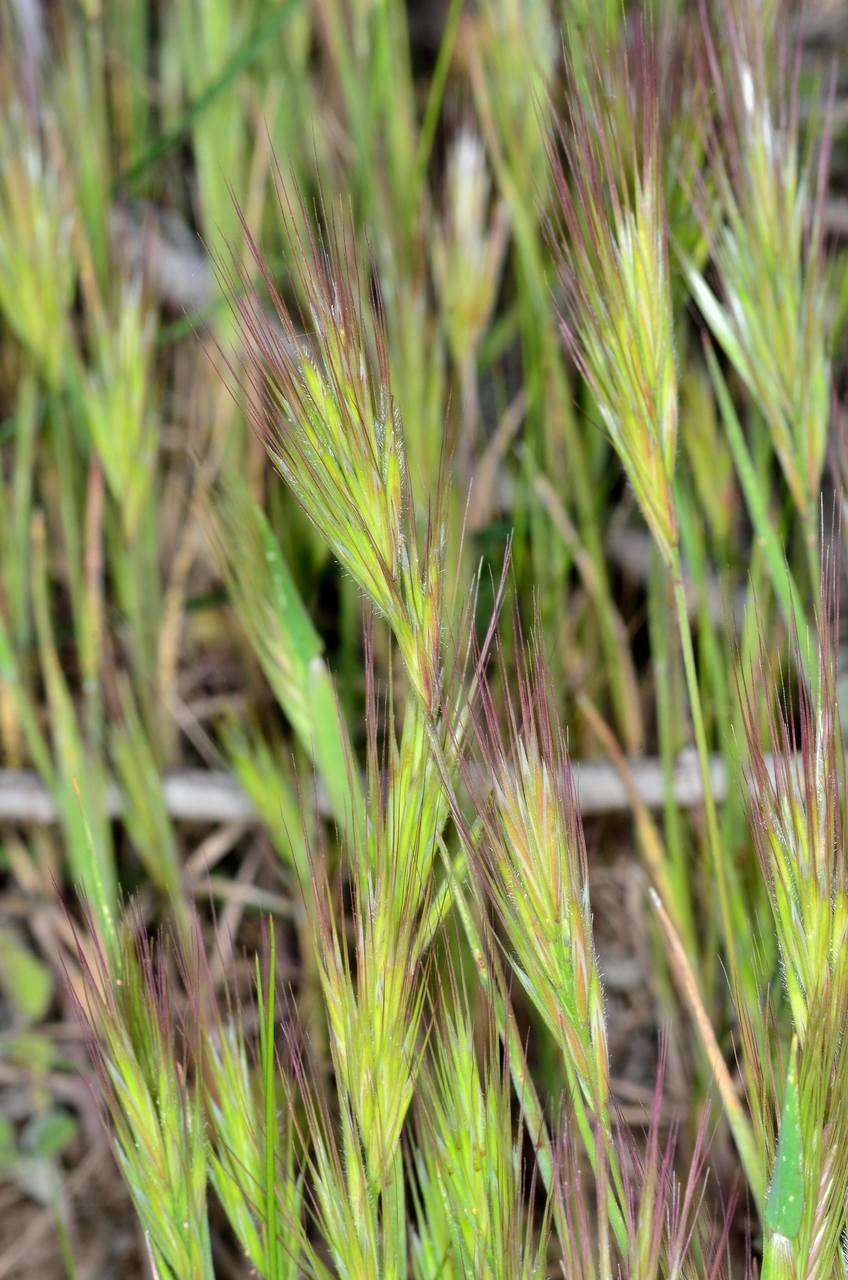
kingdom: Plantae
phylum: Tracheophyta
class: Liliopsida
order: Poales
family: Poaceae
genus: Bromus
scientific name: Bromus rubens
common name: Red brome
